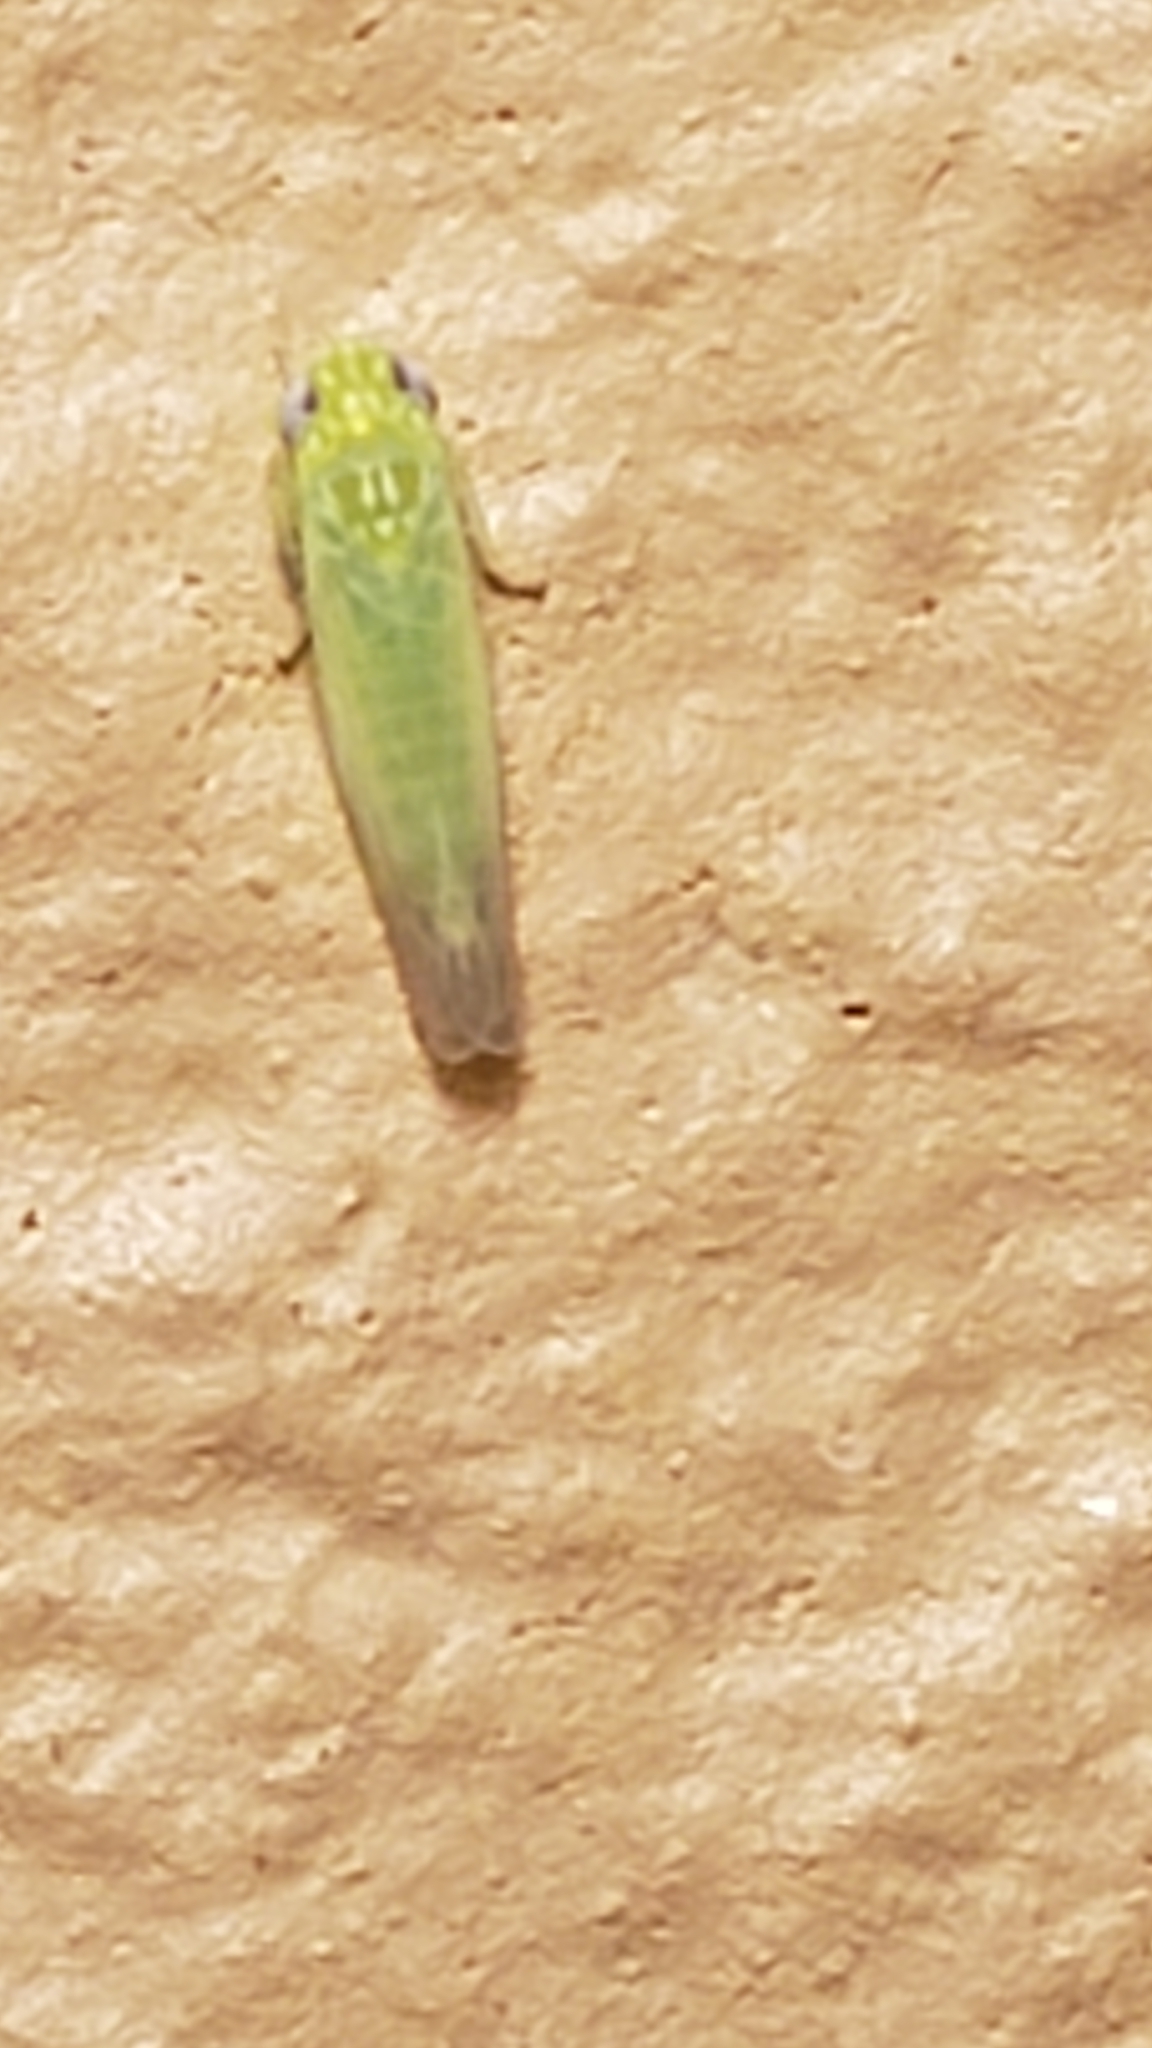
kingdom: Animalia
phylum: Arthropoda
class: Insecta
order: Hemiptera
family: Cicadellidae
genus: Empoasca
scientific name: Empoasca fabae
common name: Potato leafhopper
